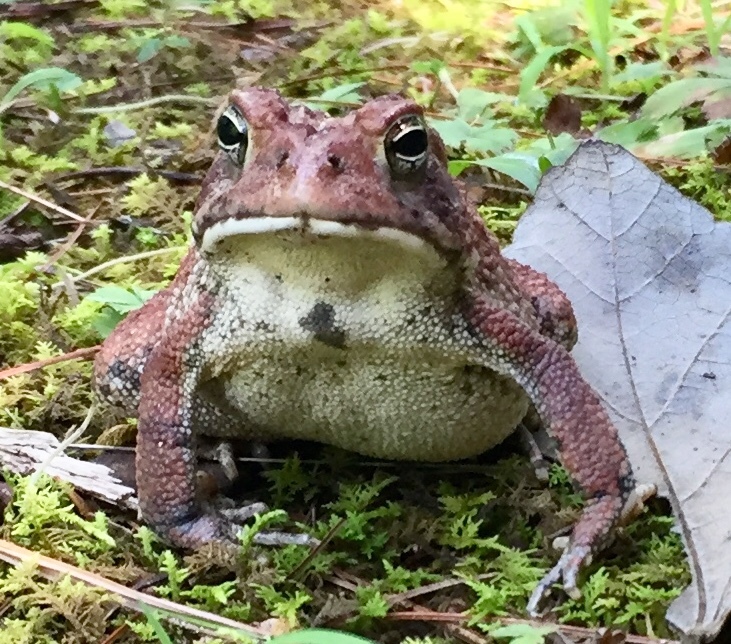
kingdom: Animalia
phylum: Chordata
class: Amphibia
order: Anura
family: Bufonidae
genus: Anaxyrus
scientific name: Anaxyrus americanus
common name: American toad
